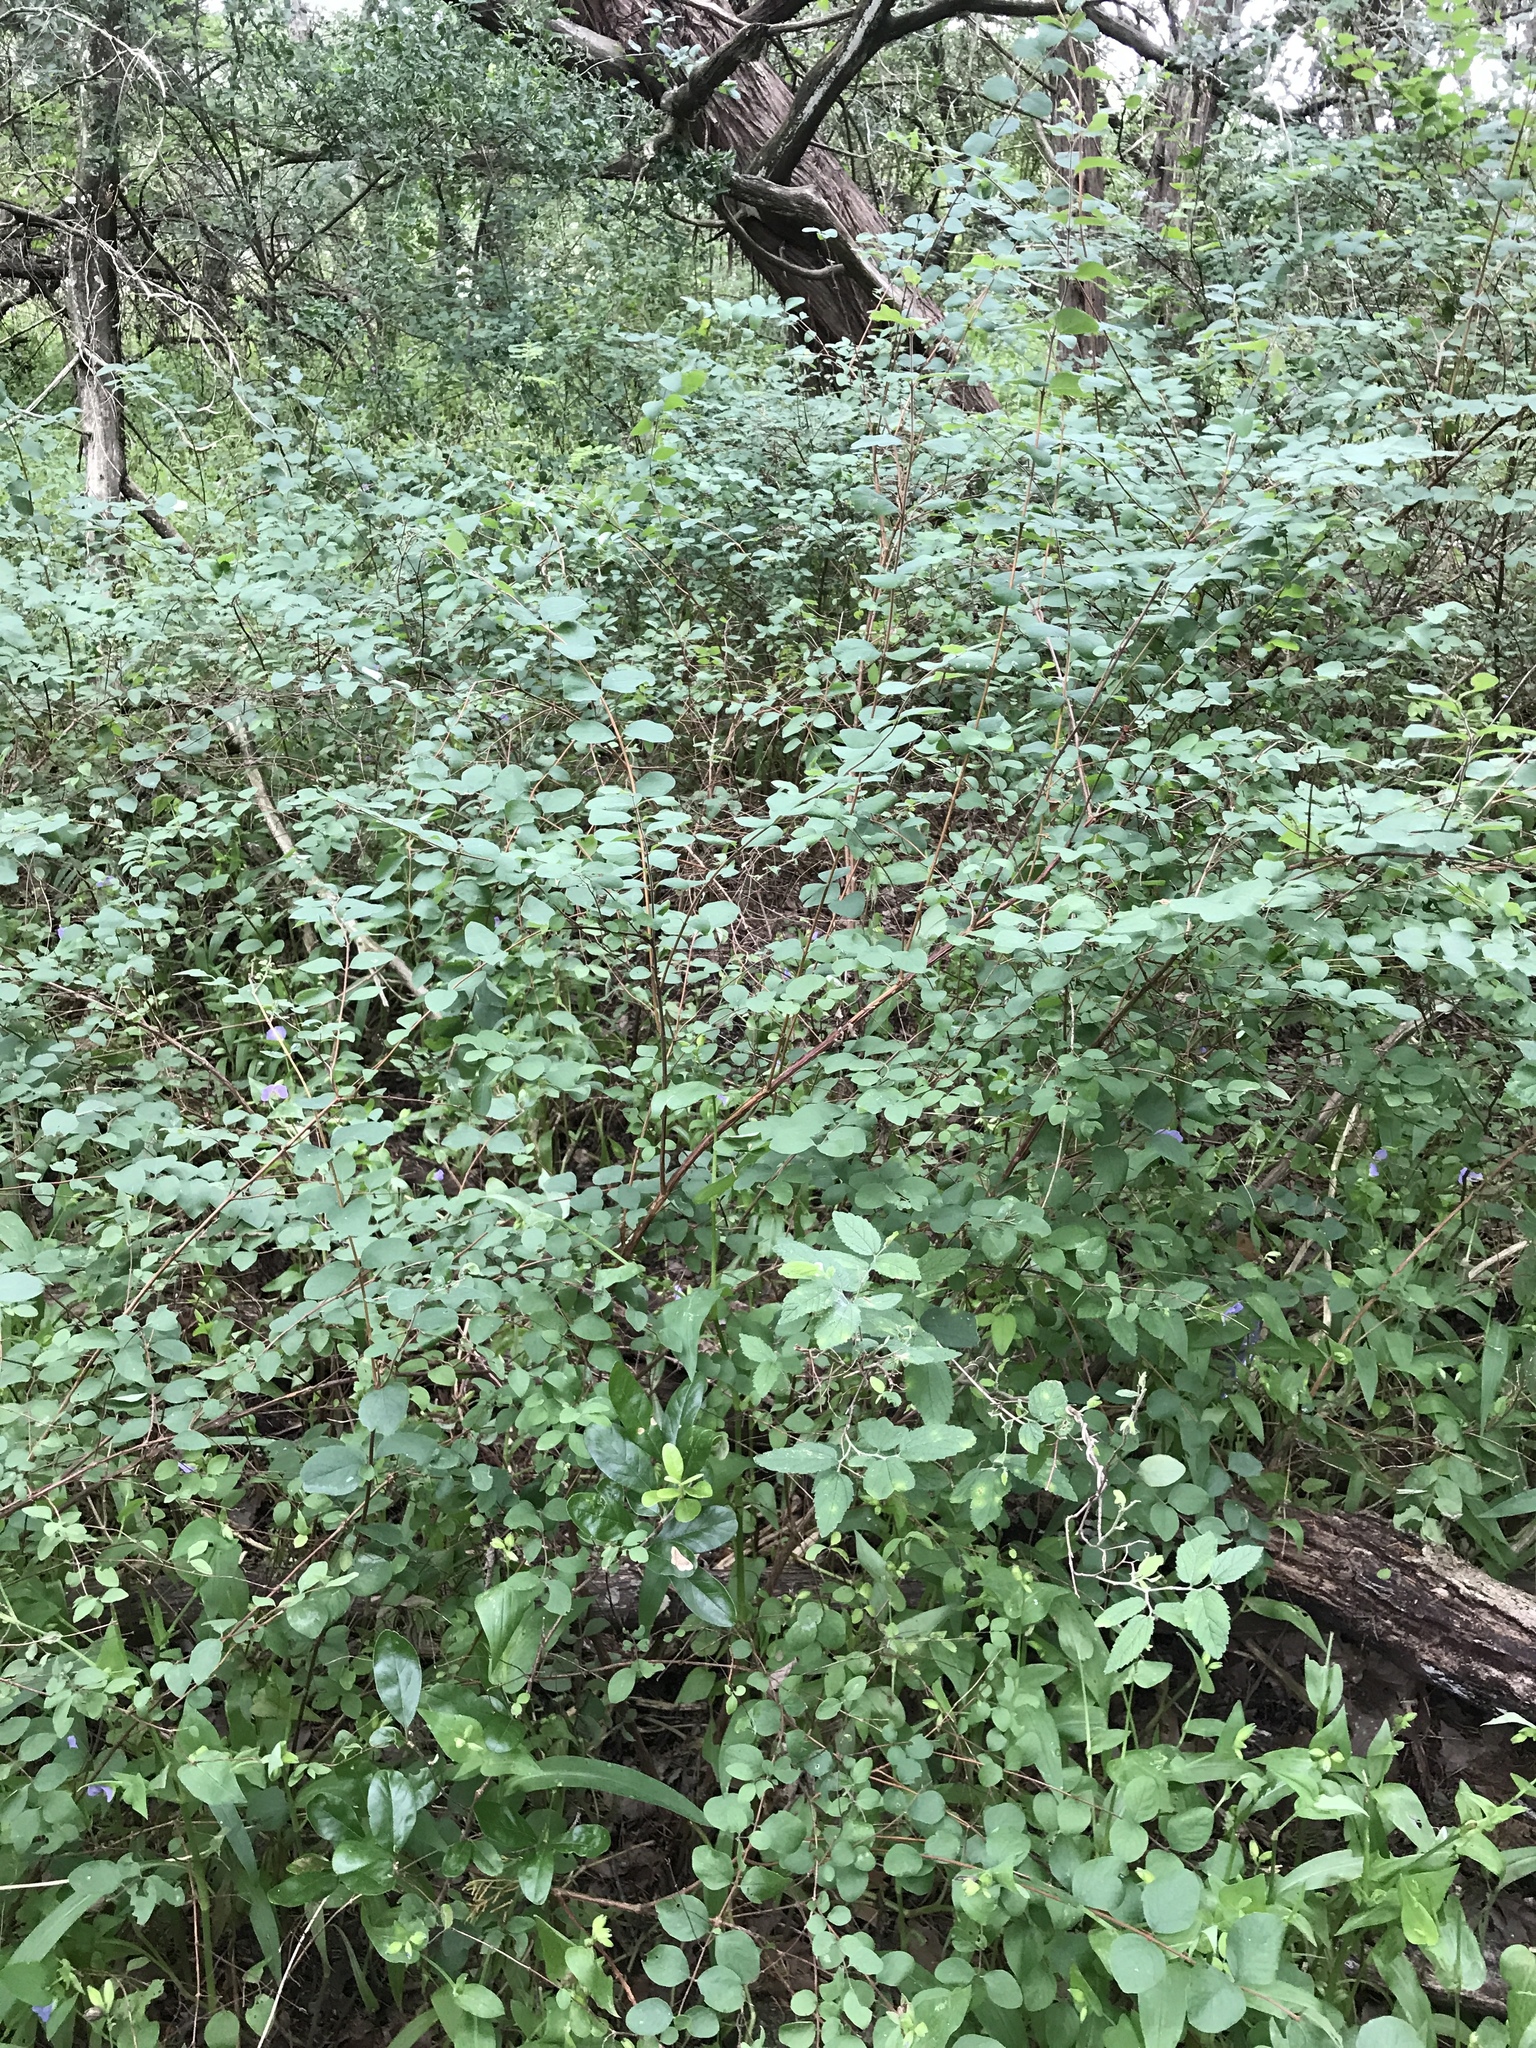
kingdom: Plantae
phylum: Tracheophyta
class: Magnoliopsida
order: Dipsacales
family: Caprifoliaceae
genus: Symphoricarpos
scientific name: Symphoricarpos orbiculatus
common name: Coralberry
